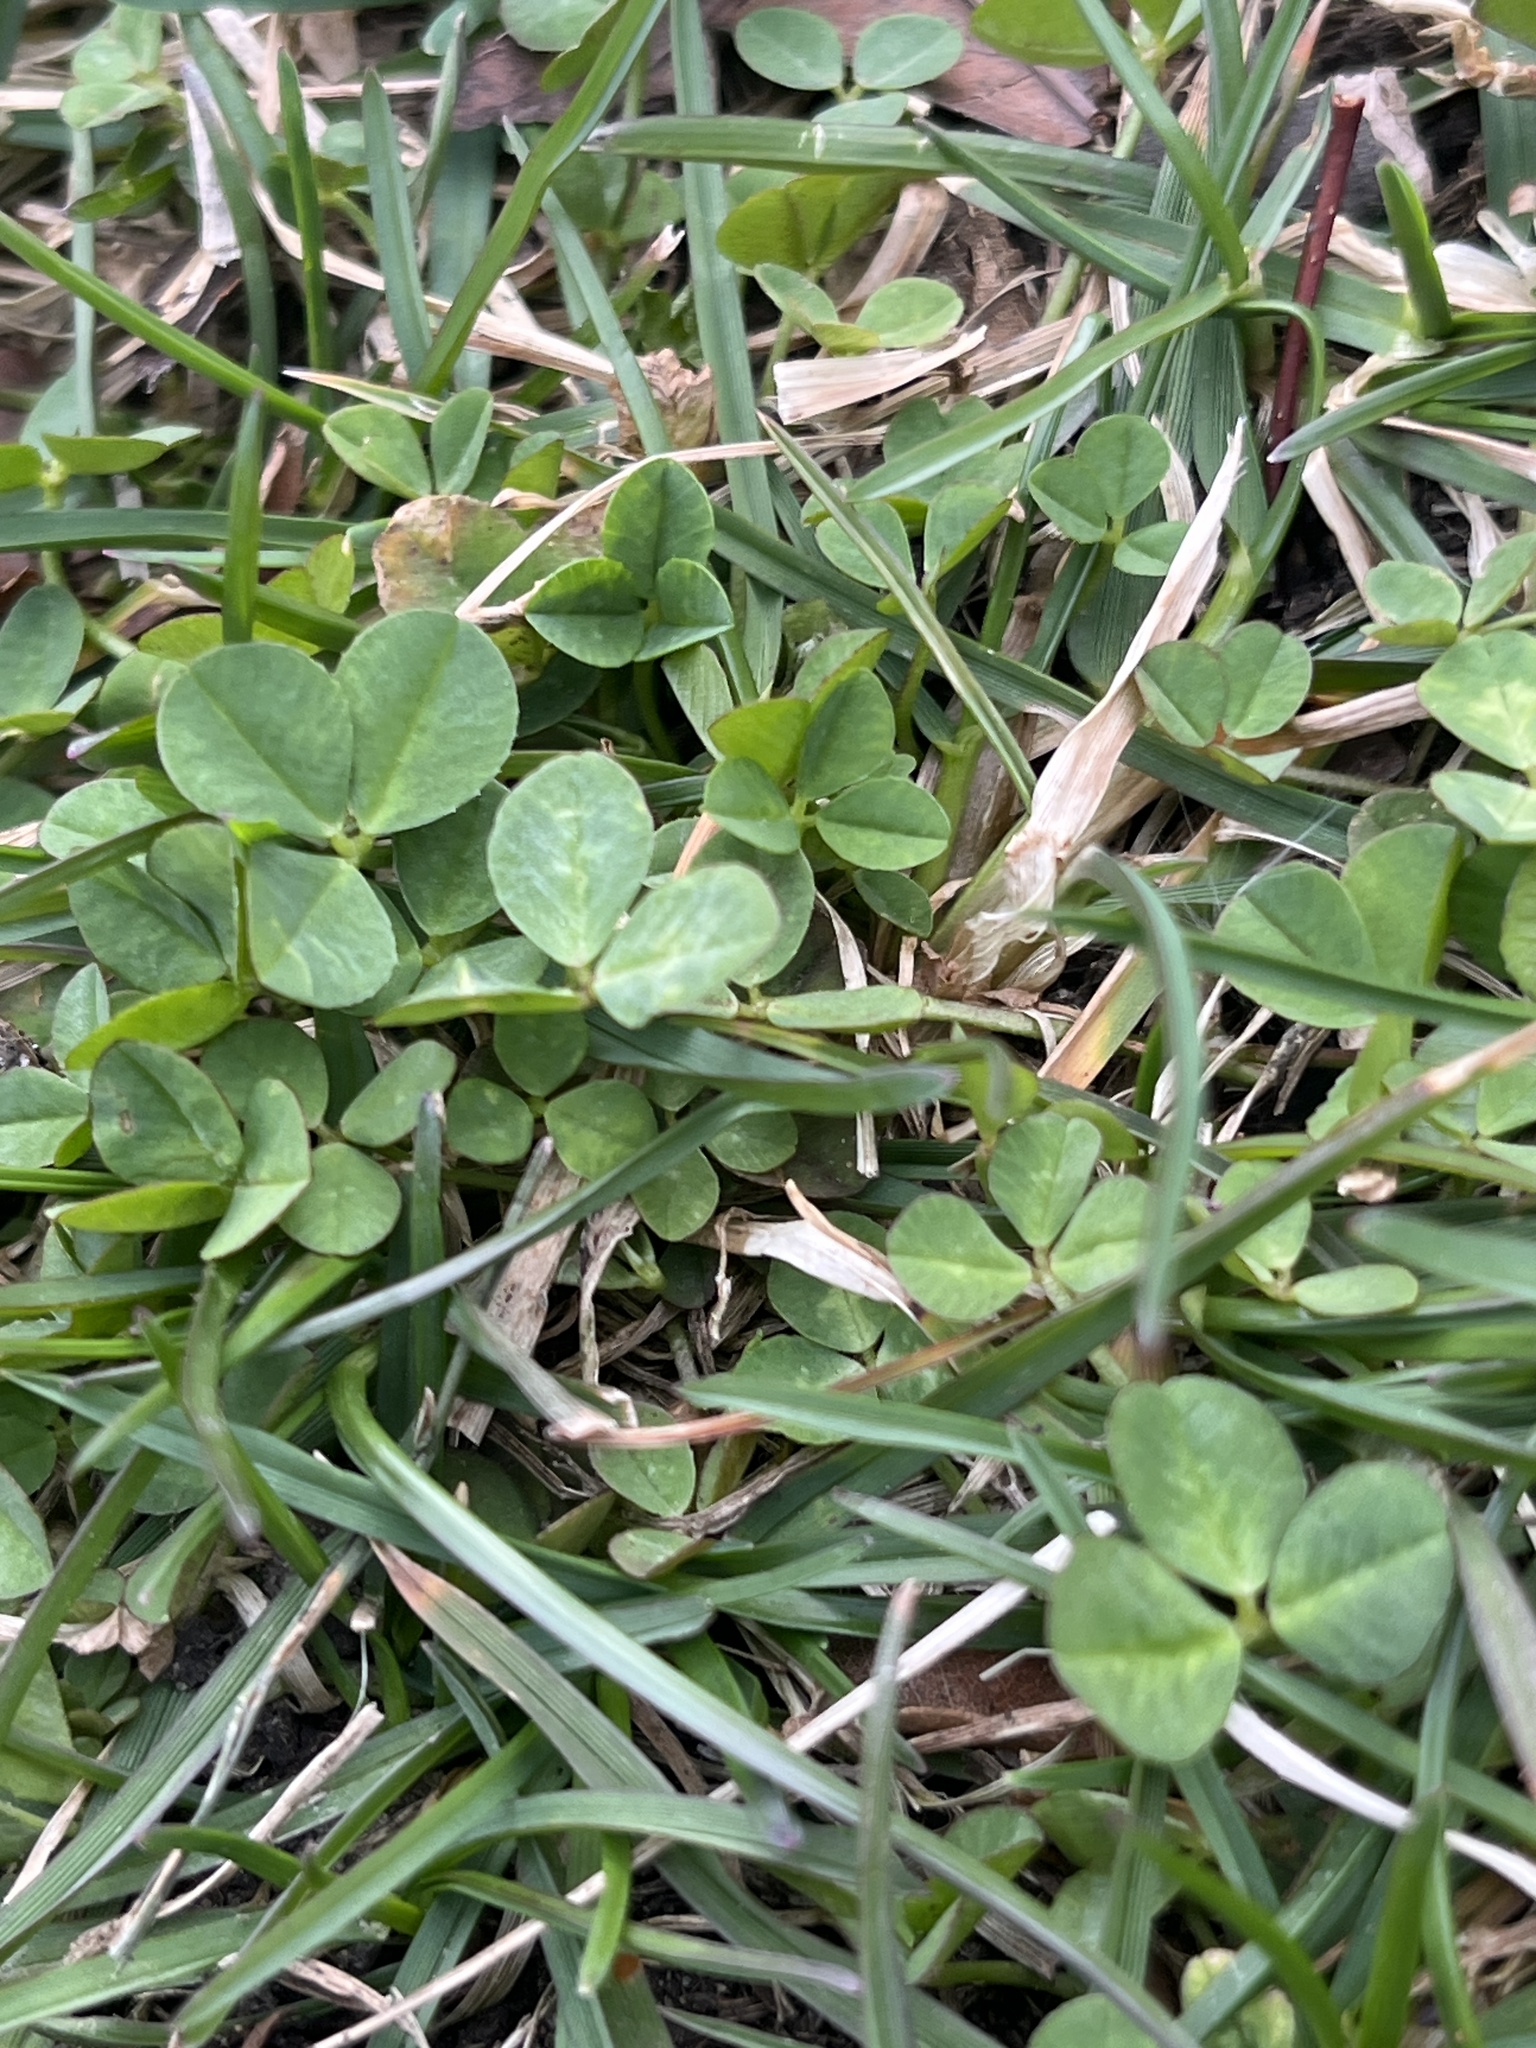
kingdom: Plantae
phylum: Tracheophyta
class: Magnoliopsida
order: Fabales
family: Fabaceae
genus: Trifolium
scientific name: Trifolium repens
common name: White clover
